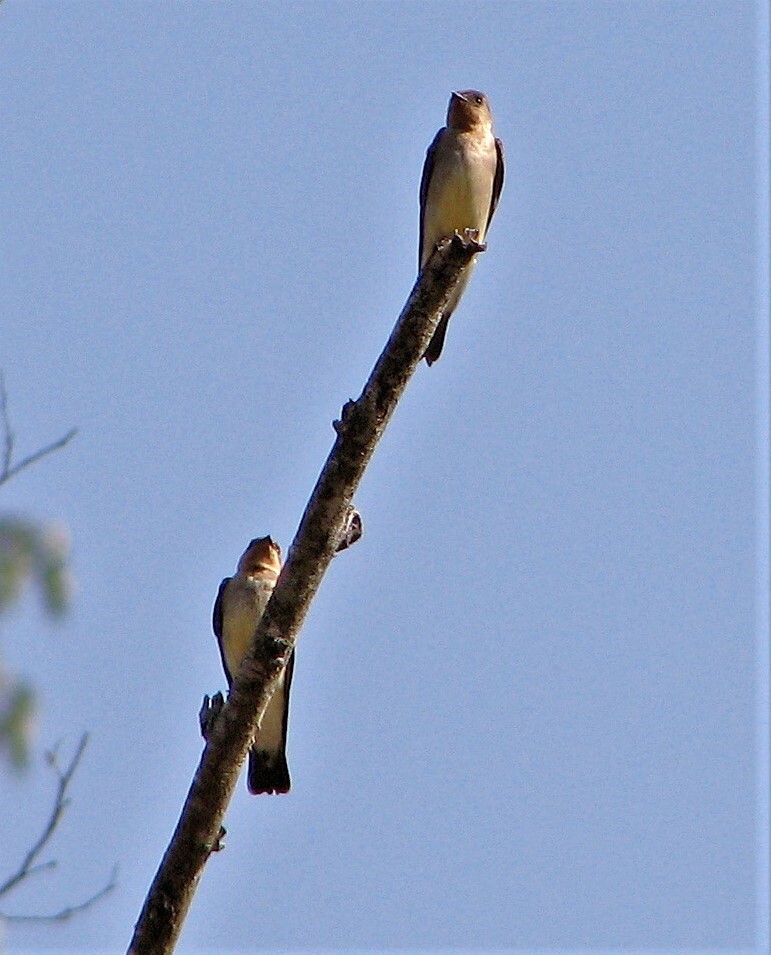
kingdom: Animalia
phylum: Chordata
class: Aves
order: Passeriformes
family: Hirundinidae
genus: Stelgidopteryx
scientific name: Stelgidopteryx ruficollis
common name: Southern rough-winged swallow
